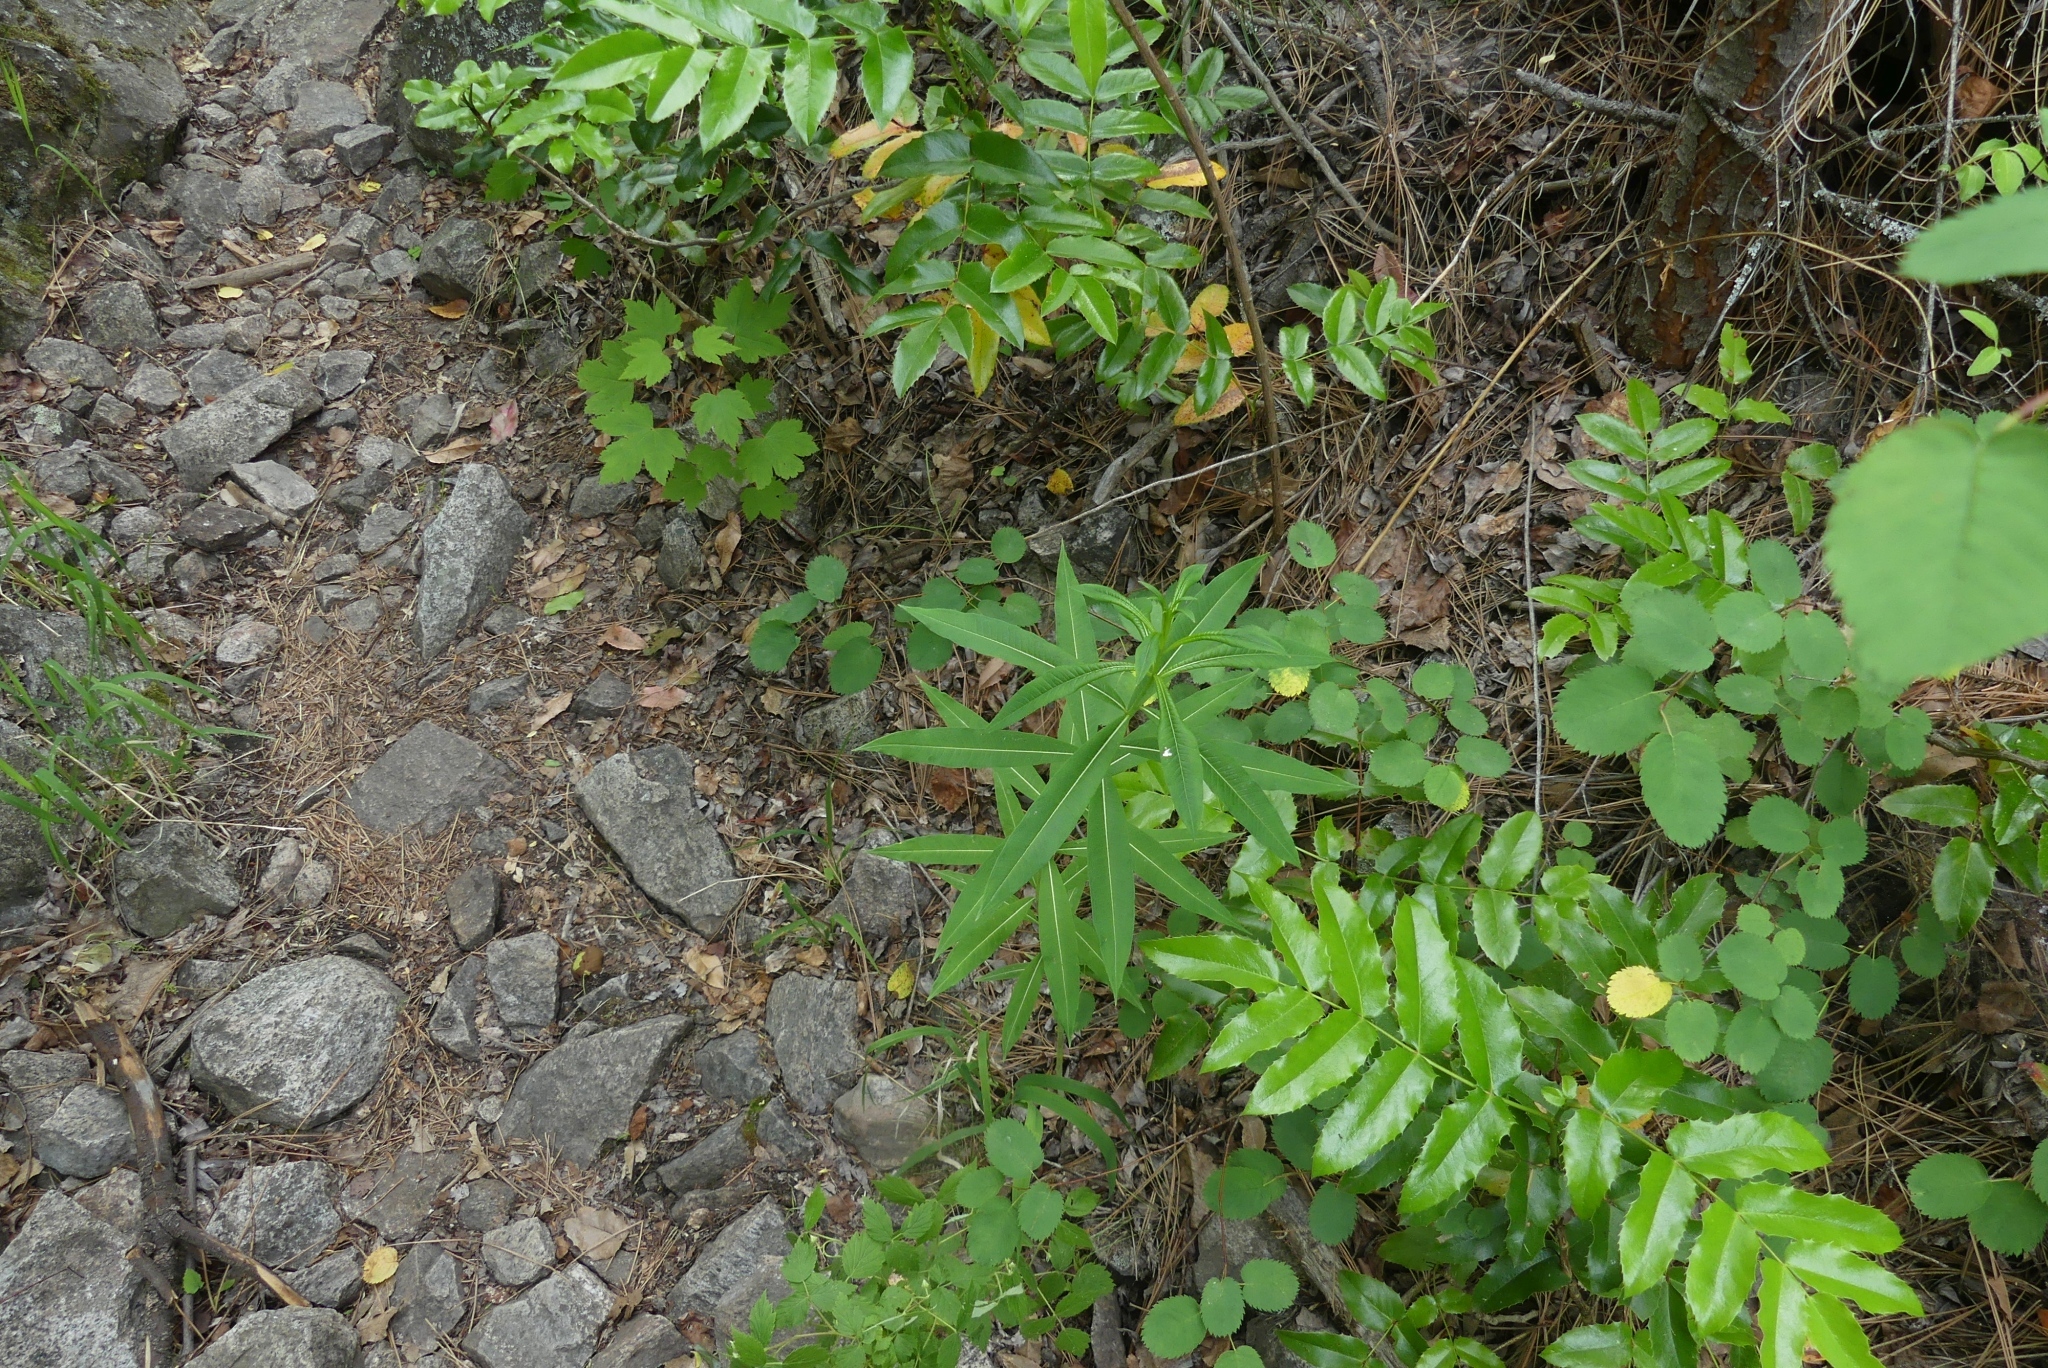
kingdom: Plantae
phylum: Tracheophyta
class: Magnoliopsida
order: Myrtales
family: Onagraceae
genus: Chamaenerion
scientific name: Chamaenerion angustifolium
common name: Fireweed
